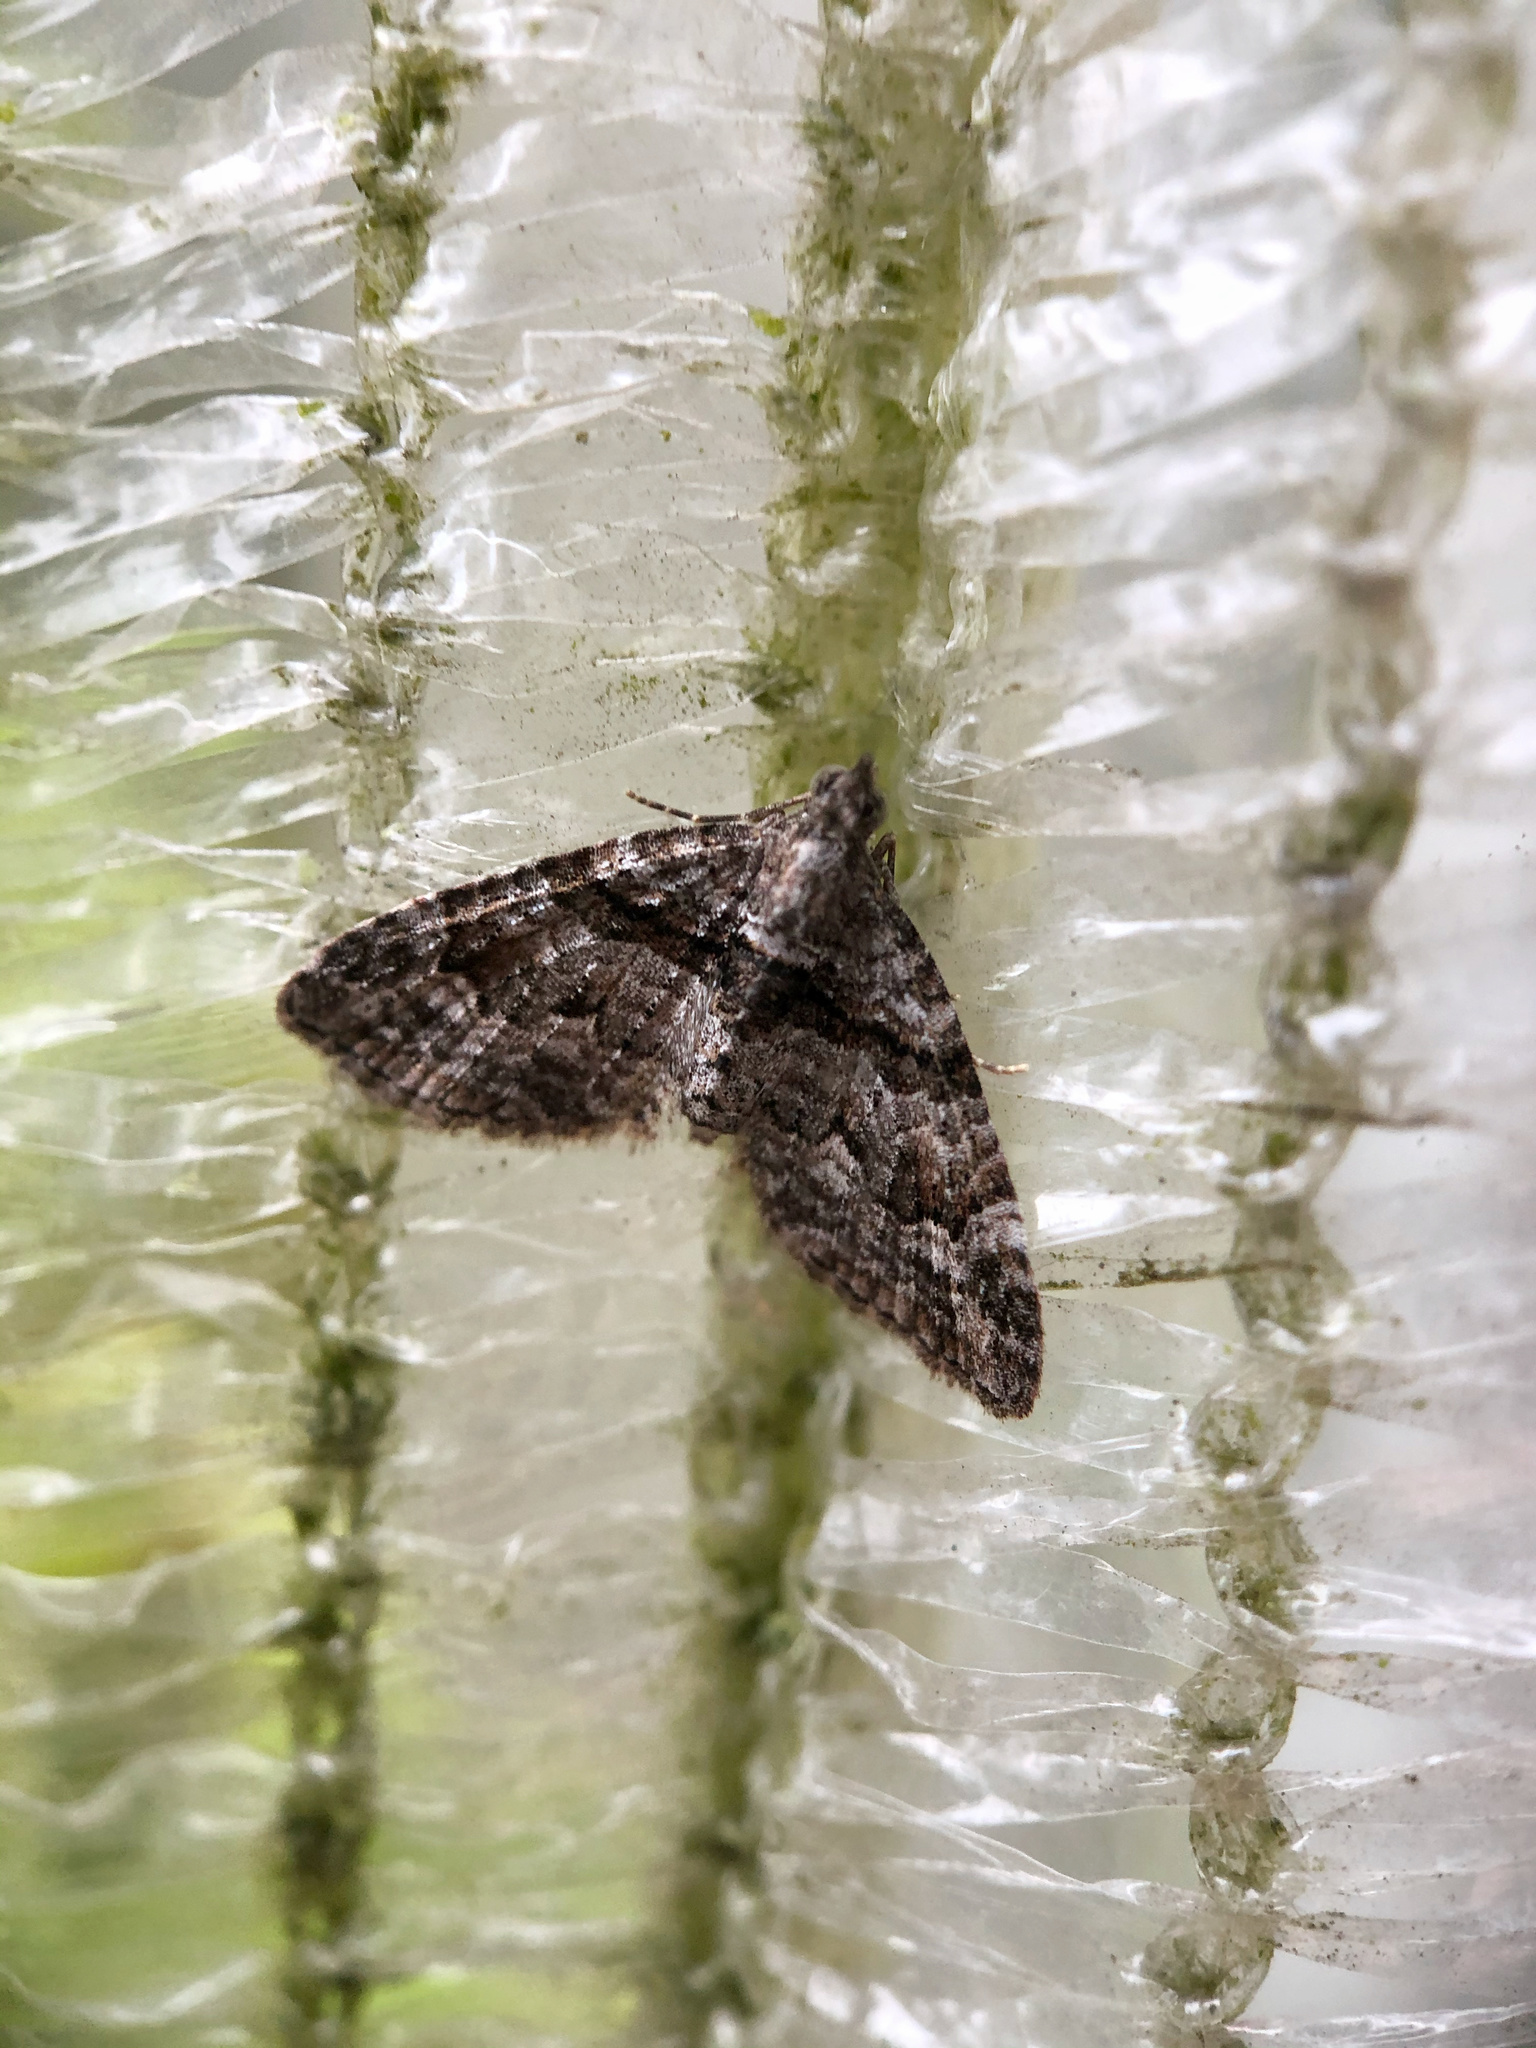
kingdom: Animalia
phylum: Arthropoda
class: Insecta
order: Lepidoptera
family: Geometridae
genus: Phrissogonus
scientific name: Phrissogonus laticostata
